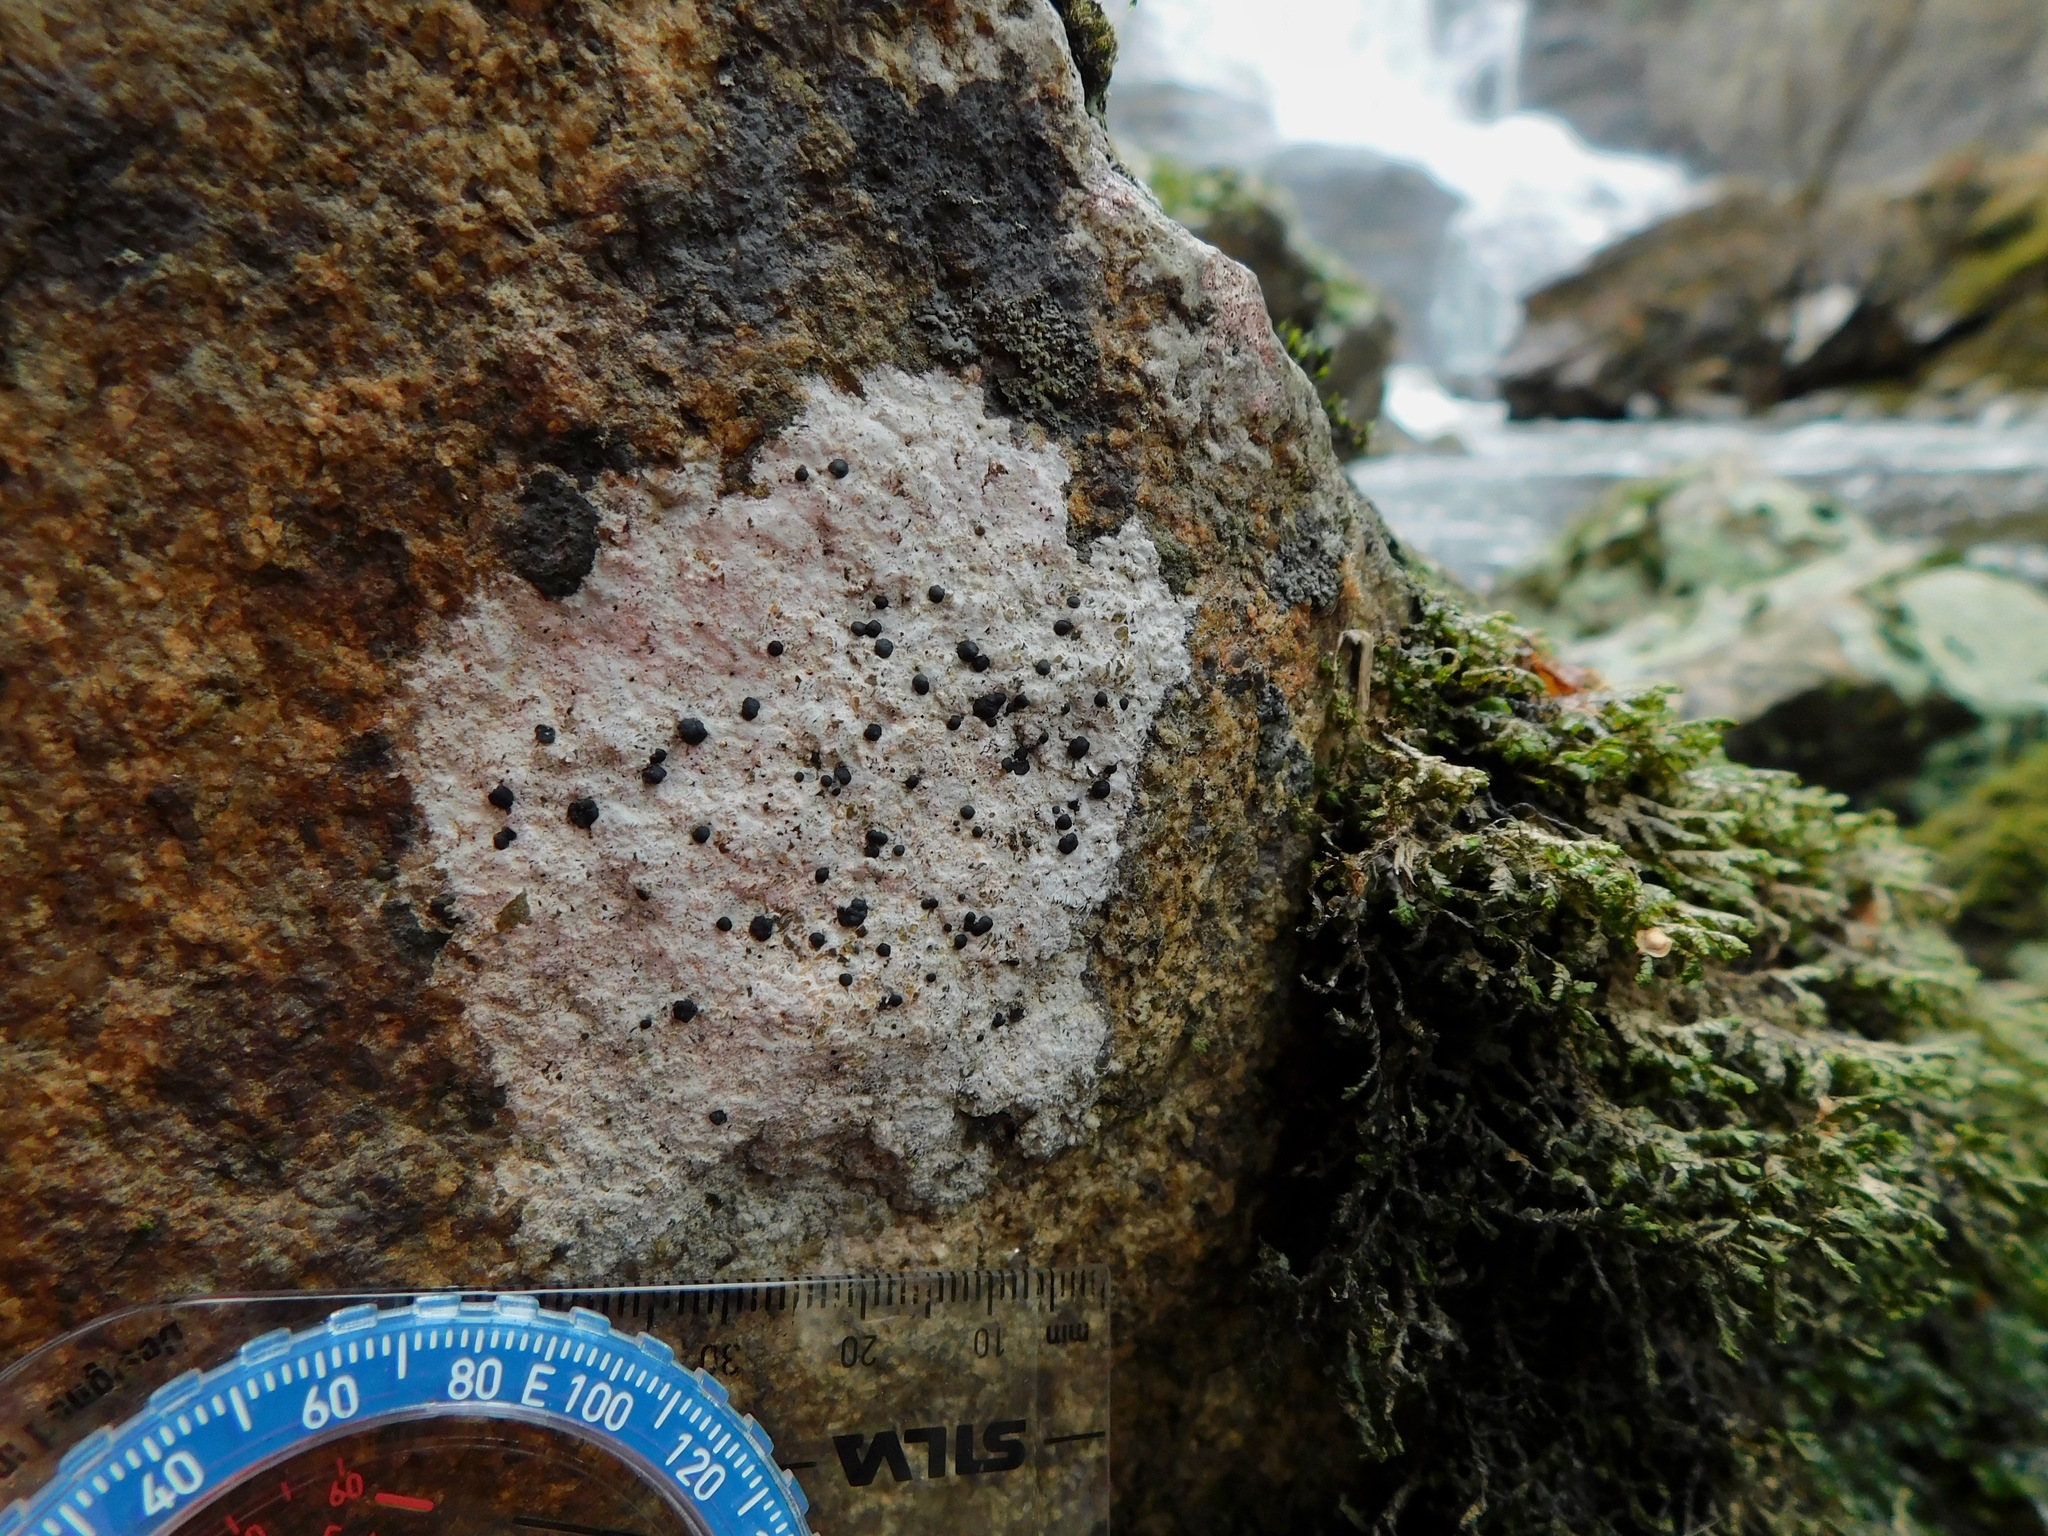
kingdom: Fungi
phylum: Ascomycota
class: Lecanoromycetes
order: Lecideales
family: Lecideaceae
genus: Porpidia
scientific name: Porpidia macrocarpa
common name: Common boulder lichen
